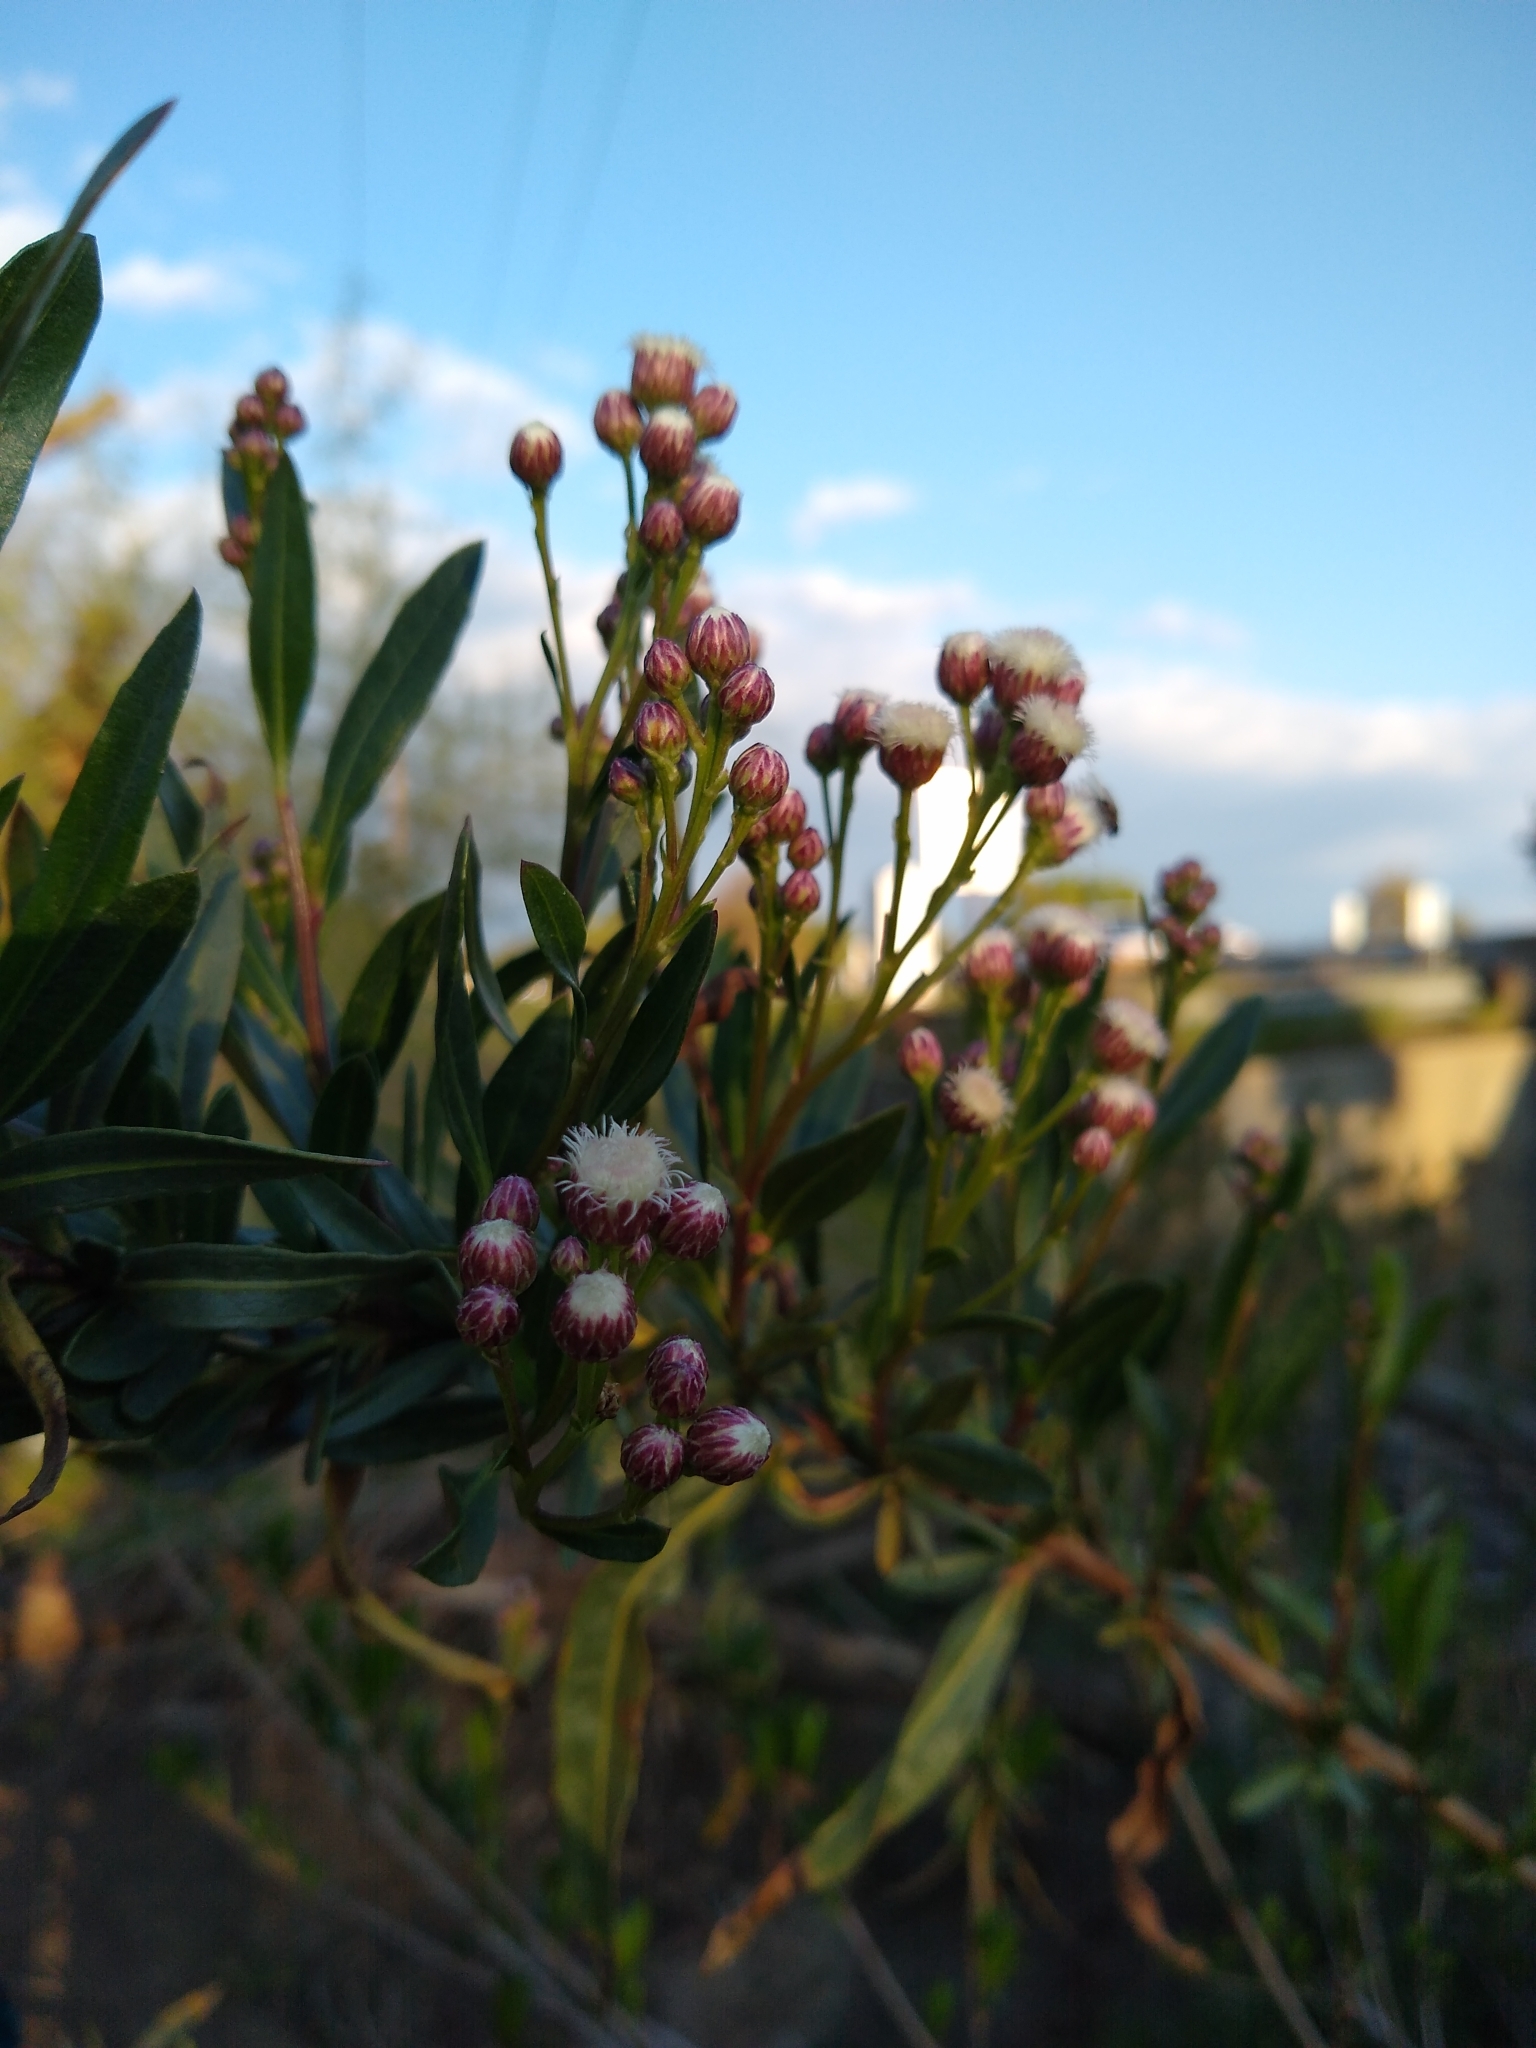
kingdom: Plantae
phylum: Tracheophyta
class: Magnoliopsida
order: Asterales
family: Asteraceae
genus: Baccharis
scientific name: Baccharis salicifolia
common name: Sticky baccharis
